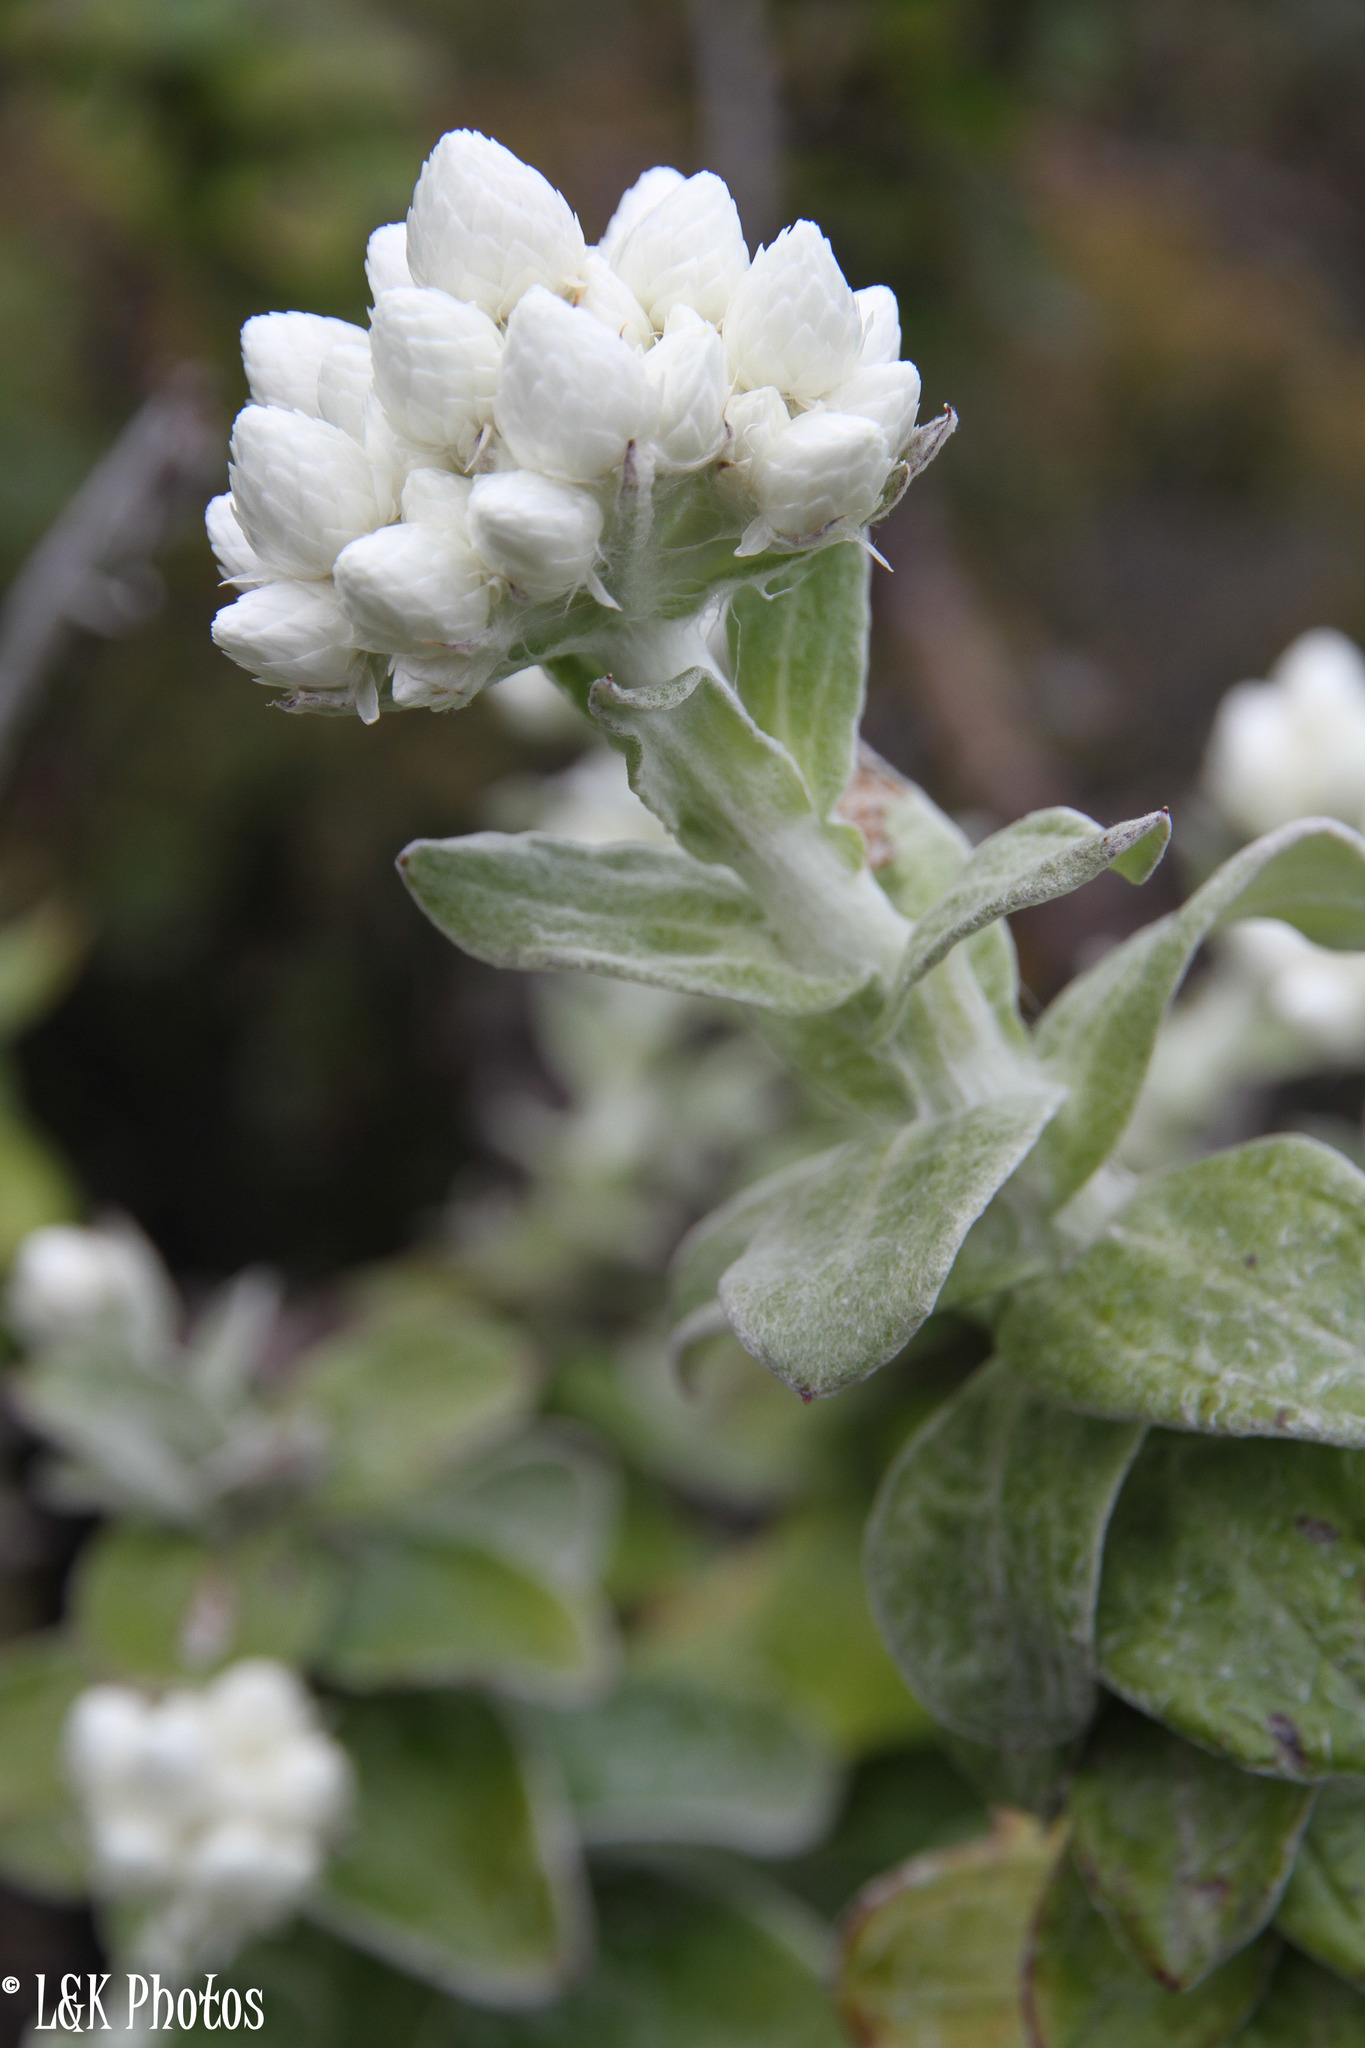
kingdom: Plantae
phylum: Tracheophyta
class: Magnoliopsida
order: Asterales
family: Asteraceae
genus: Helichrysum
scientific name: Helichrysum fruticans
